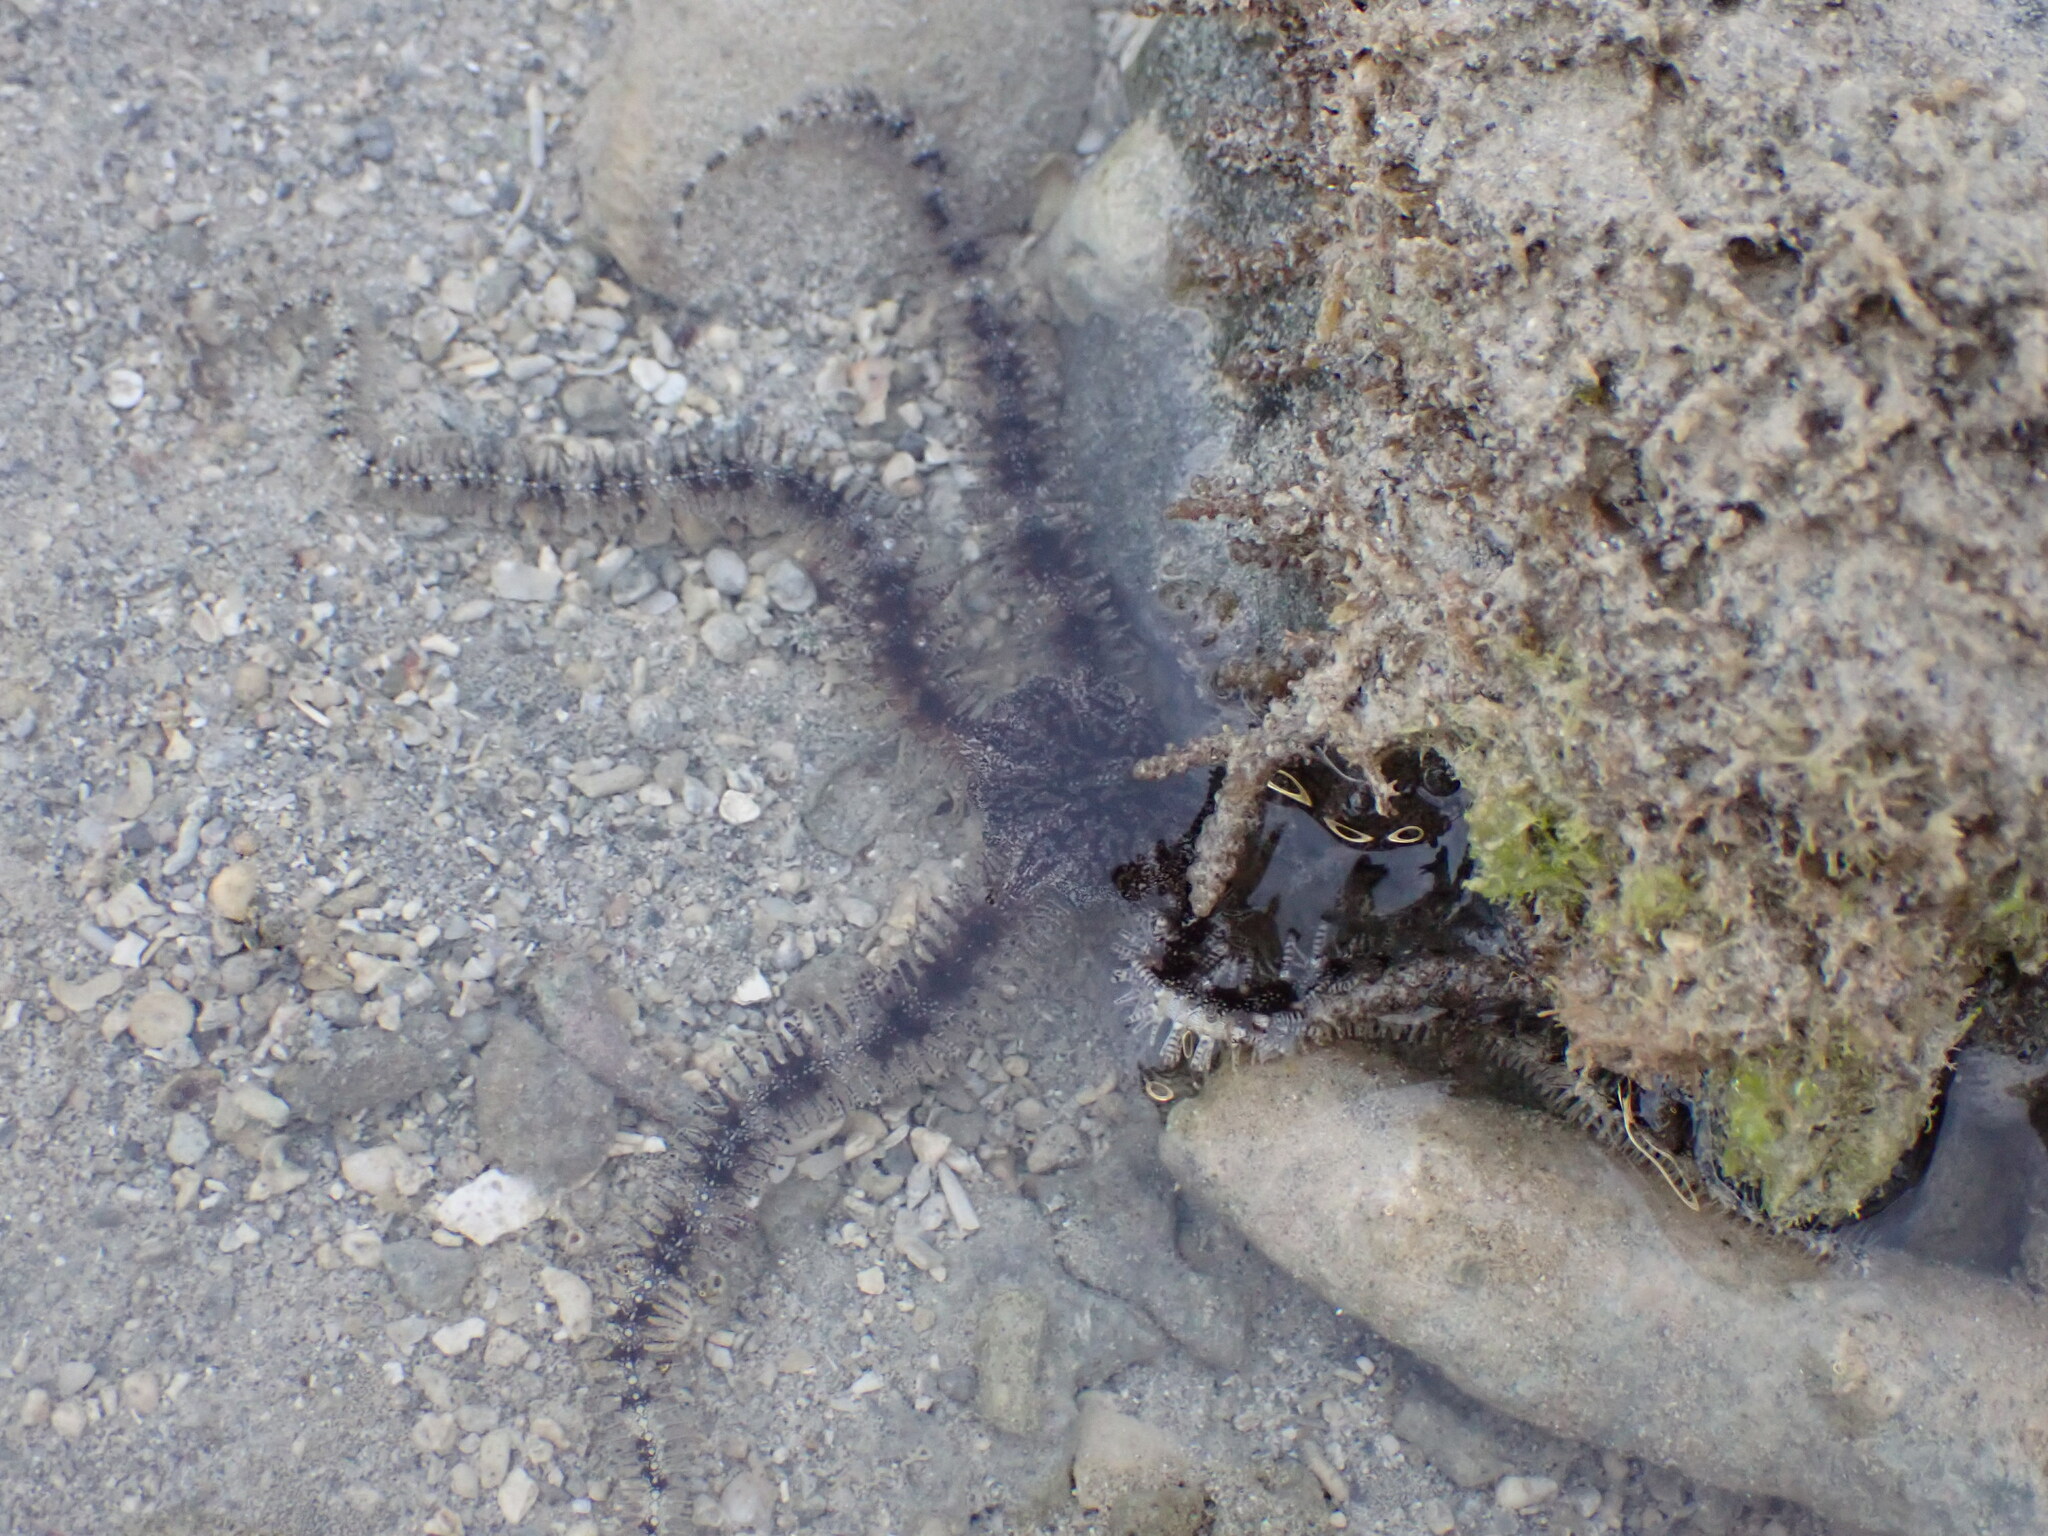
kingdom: Animalia
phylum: Echinodermata
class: Ophiuroidea
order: Ophiacanthida
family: Ophiocomidae
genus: Ophiocoma
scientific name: Ophiocoma scolopendrina
